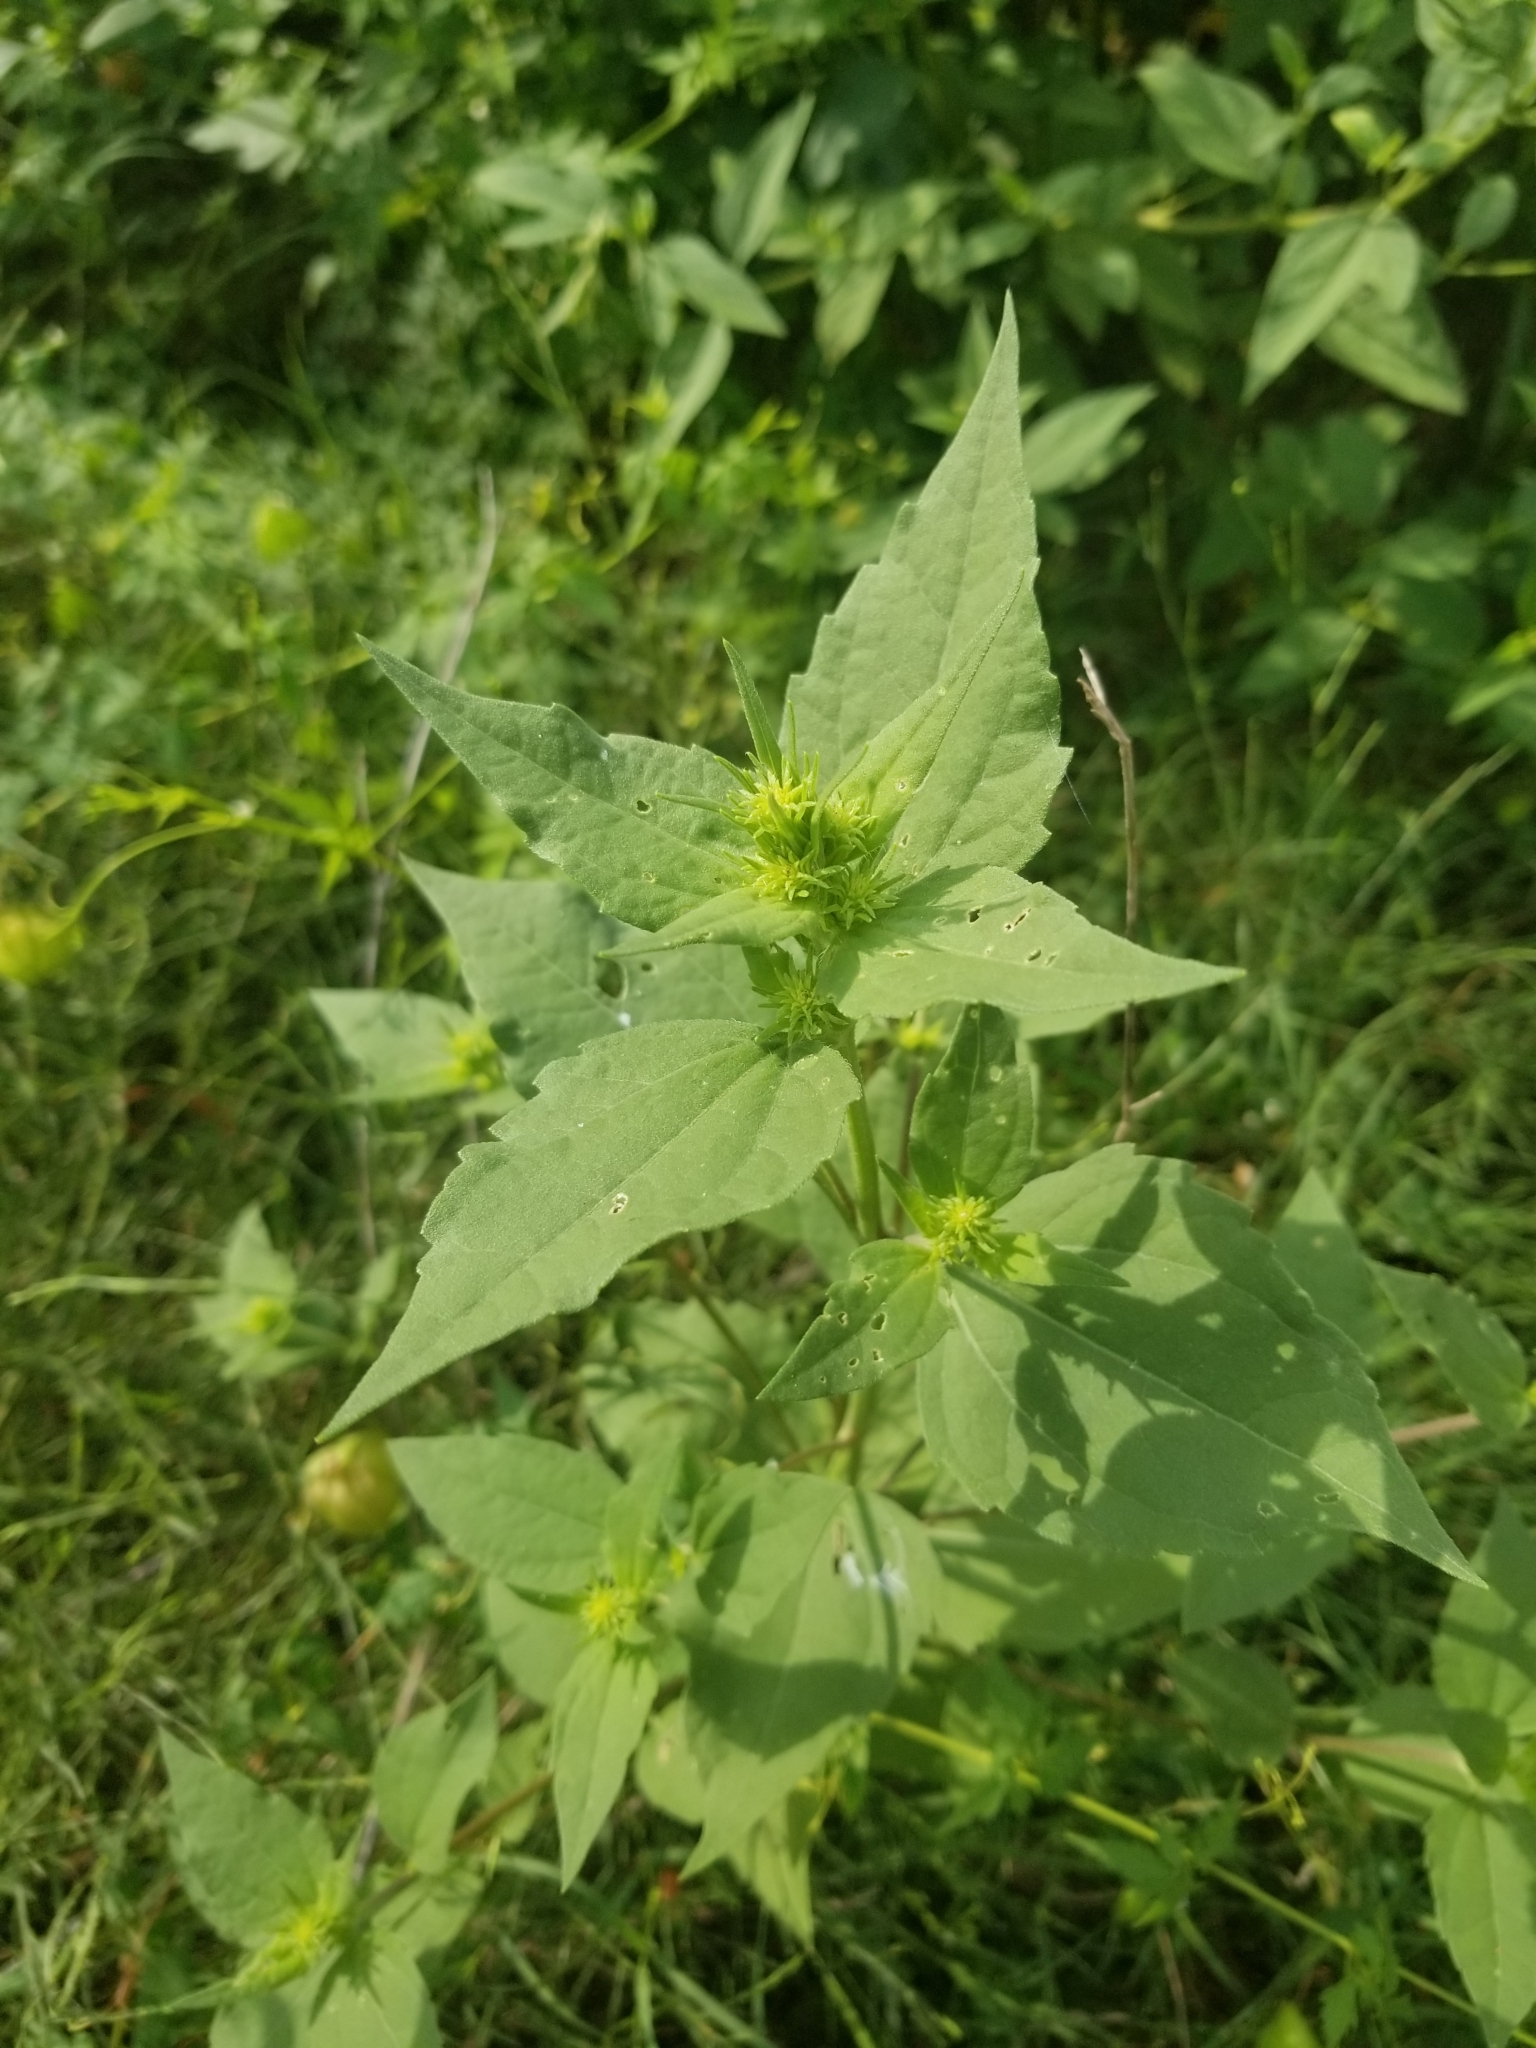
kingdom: Plantae
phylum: Tracheophyta
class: Magnoliopsida
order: Asterales
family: Asteraceae
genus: Iva
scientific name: Iva annua
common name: Marsh-elder
